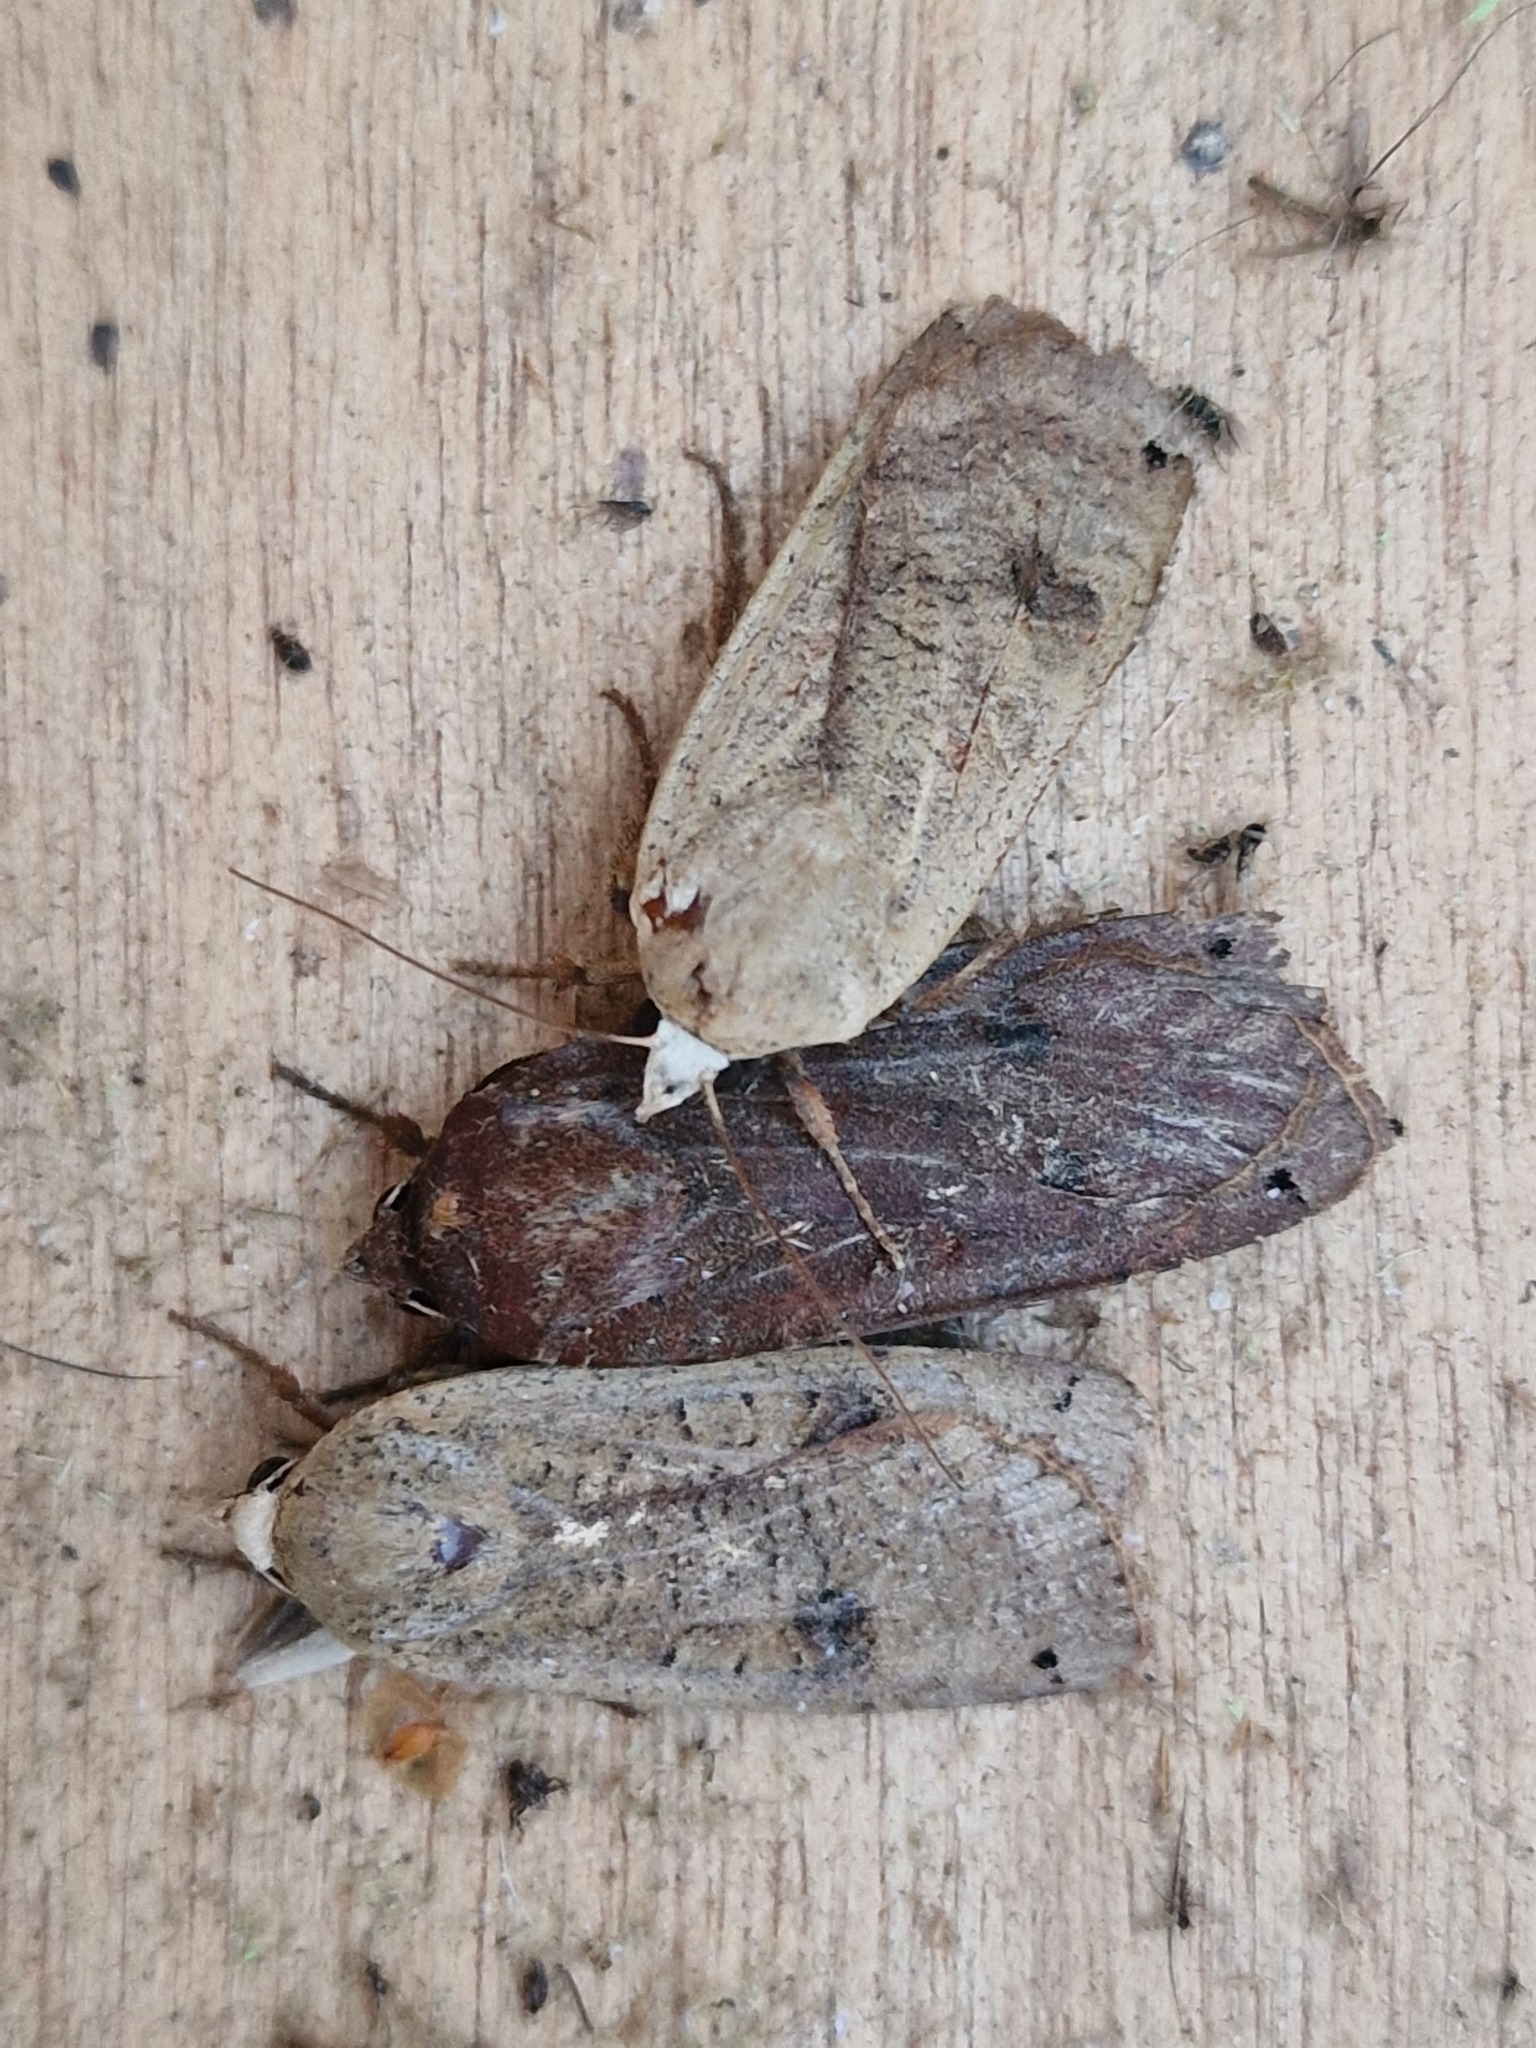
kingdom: Animalia
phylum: Arthropoda
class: Insecta
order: Lepidoptera
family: Noctuidae
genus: Noctua
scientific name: Noctua pronuba
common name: Large yellow underwing
